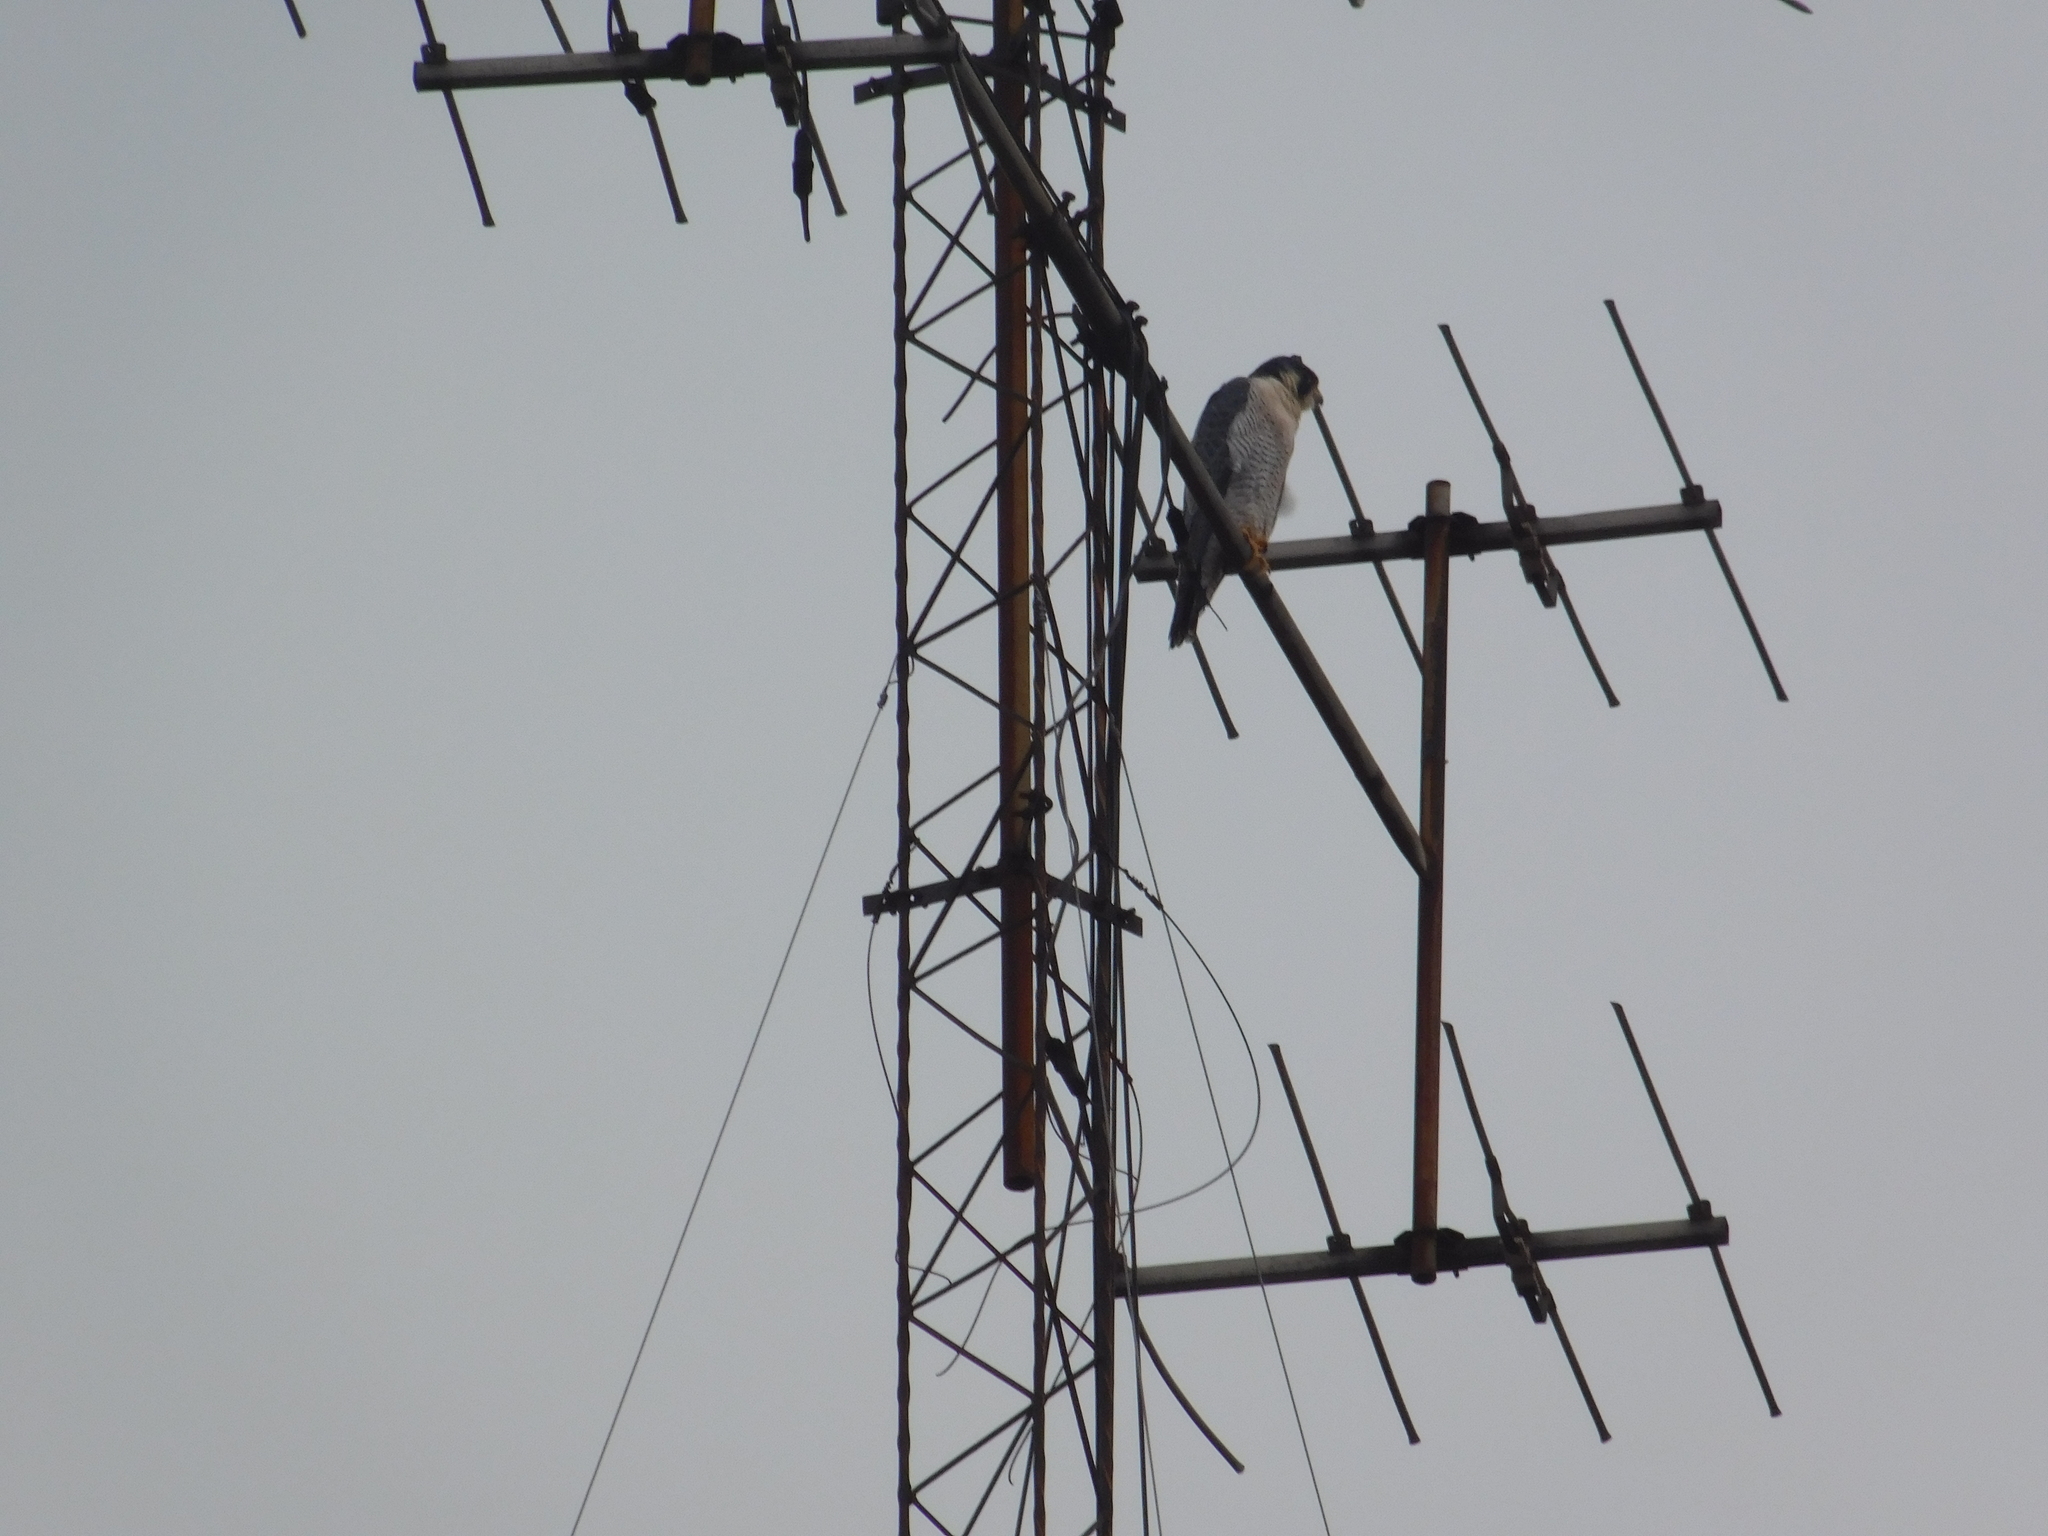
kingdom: Animalia
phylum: Chordata
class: Aves
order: Falconiformes
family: Falconidae
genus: Falco
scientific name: Falco peregrinus
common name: Peregrine falcon
